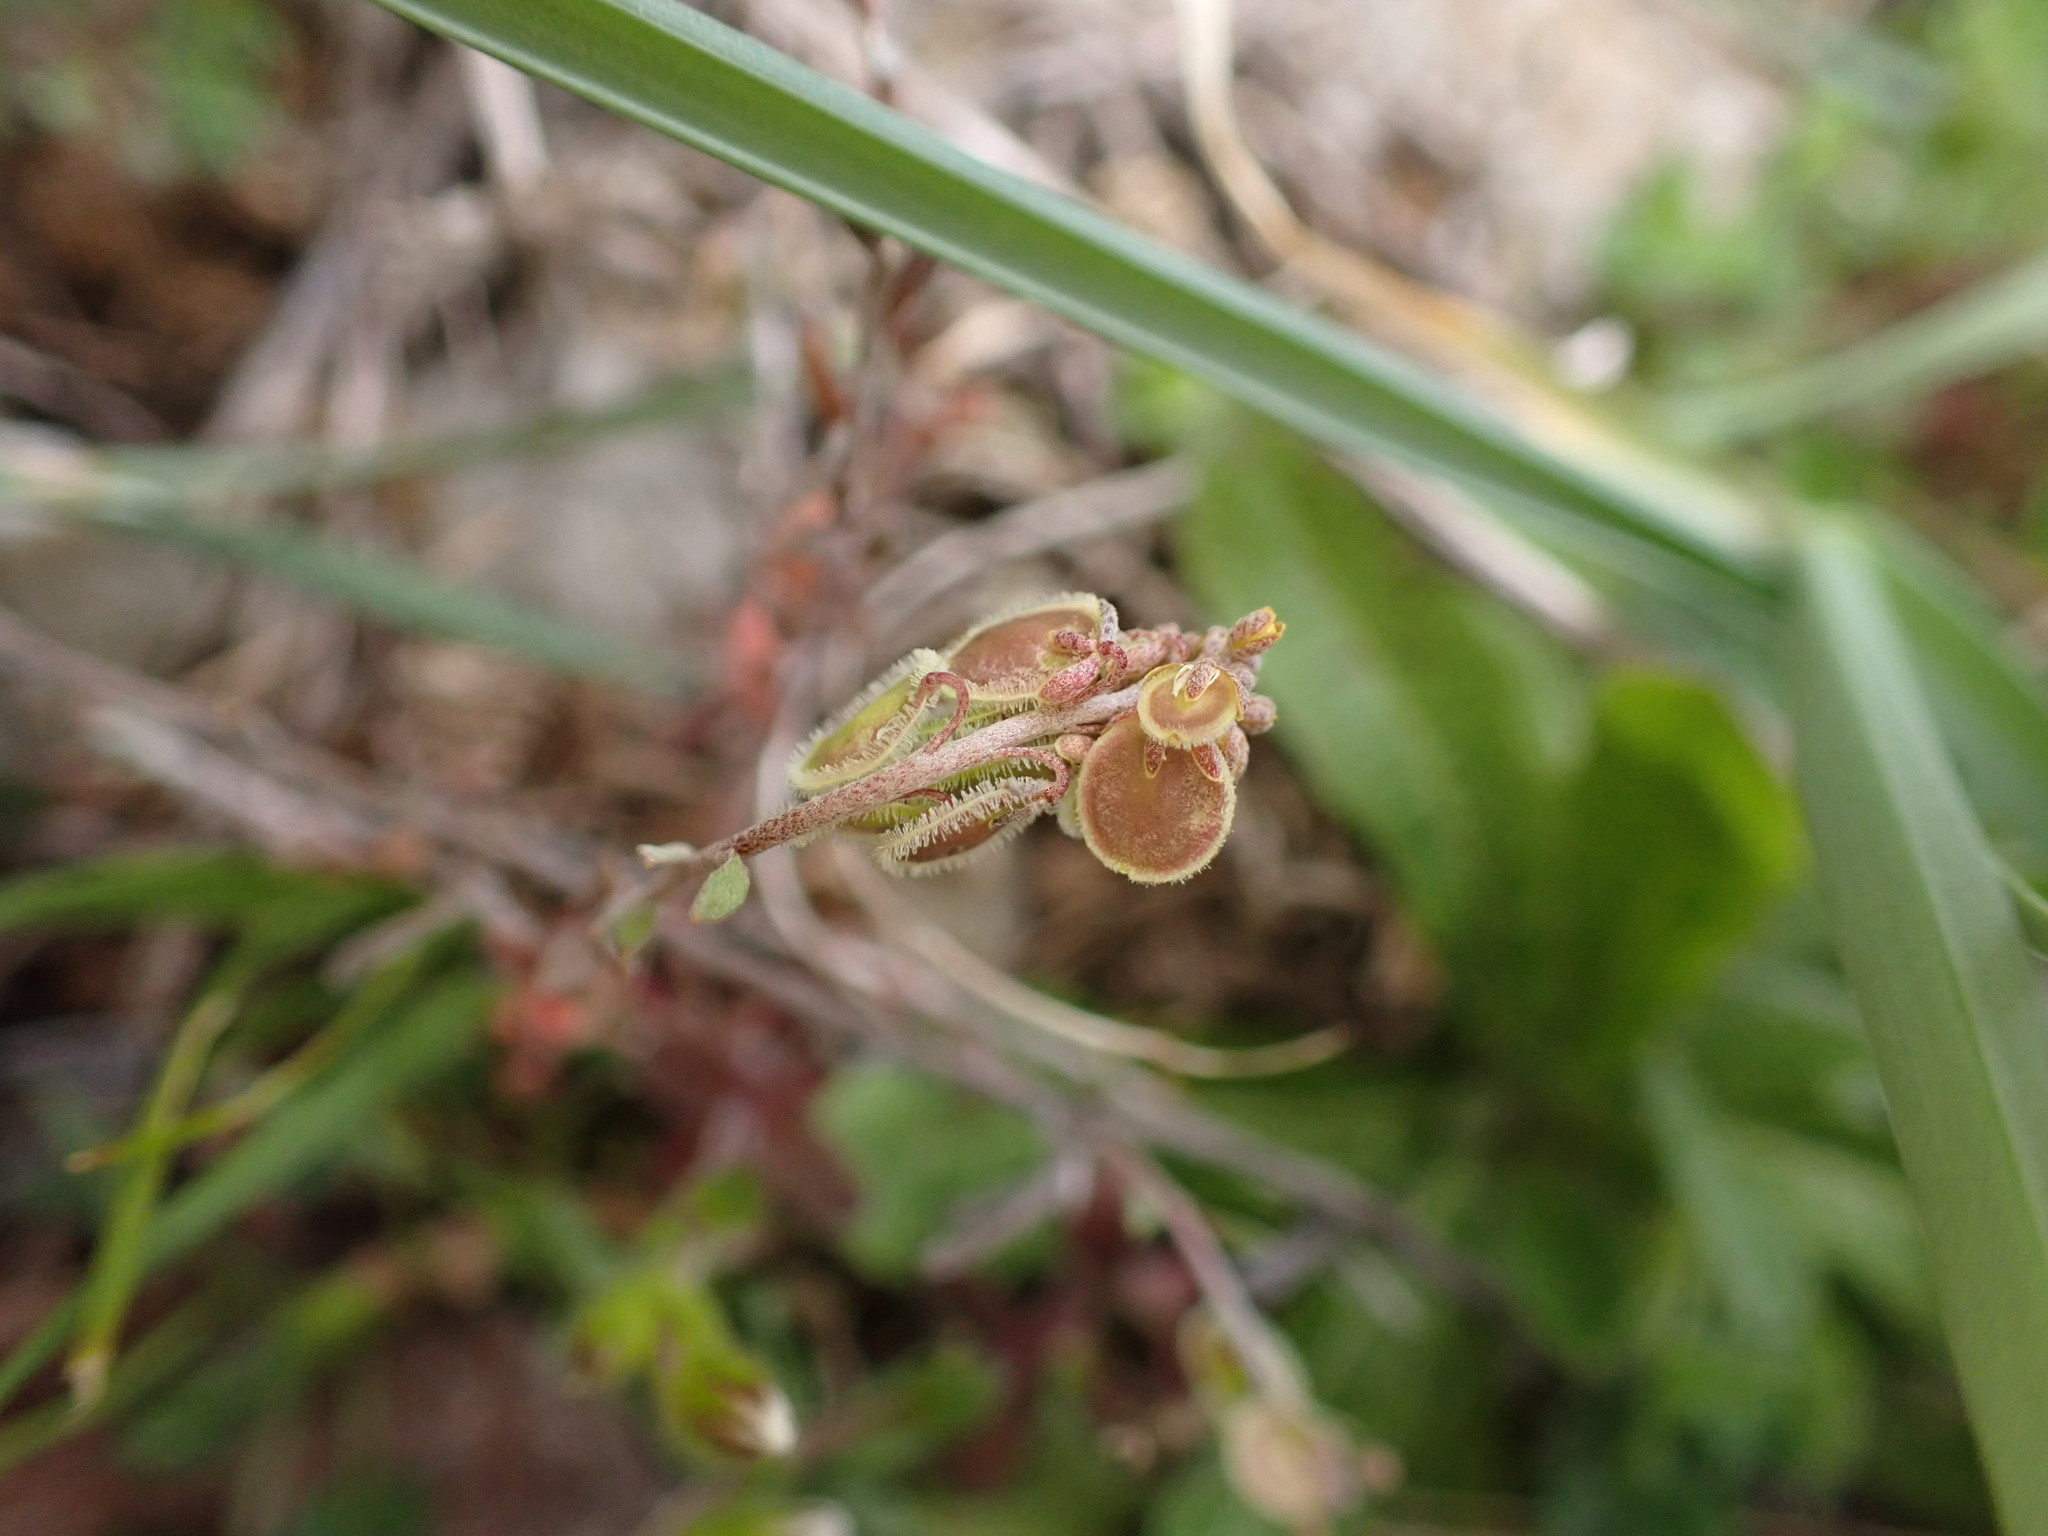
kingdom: Plantae
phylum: Tracheophyta
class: Magnoliopsida
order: Brassicales
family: Brassicaceae
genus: Clypeola
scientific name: Clypeola jonthlaspi
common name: Disk cress
